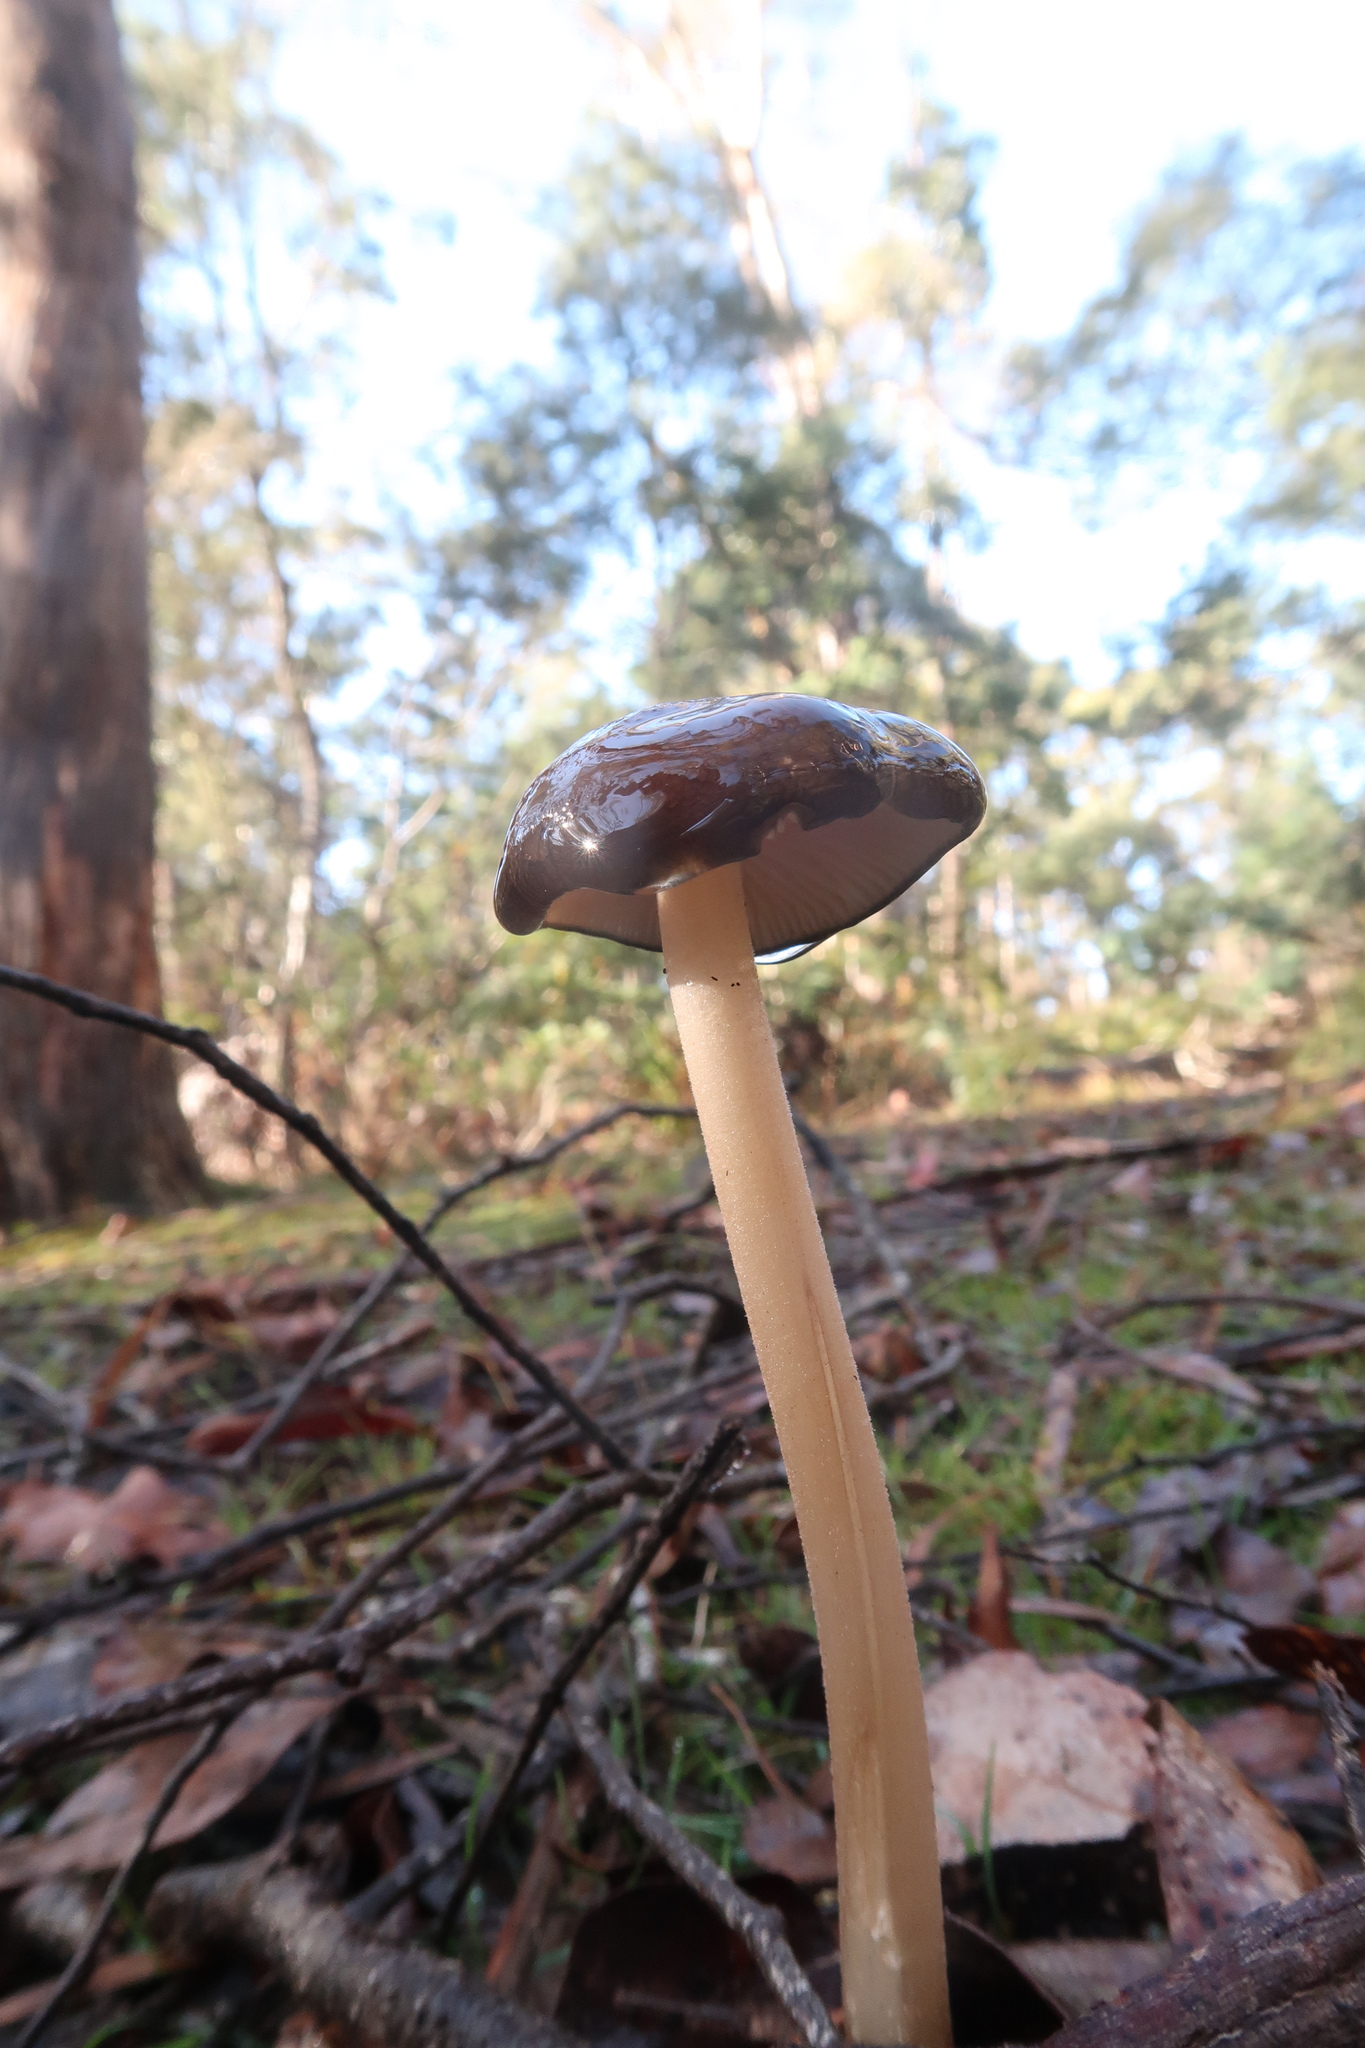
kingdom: Fungi
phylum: Basidiomycota
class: Agaricomycetes
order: Agaricales
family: Physalacriaceae
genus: Hymenopellis
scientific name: Hymenopellis gigaspora
